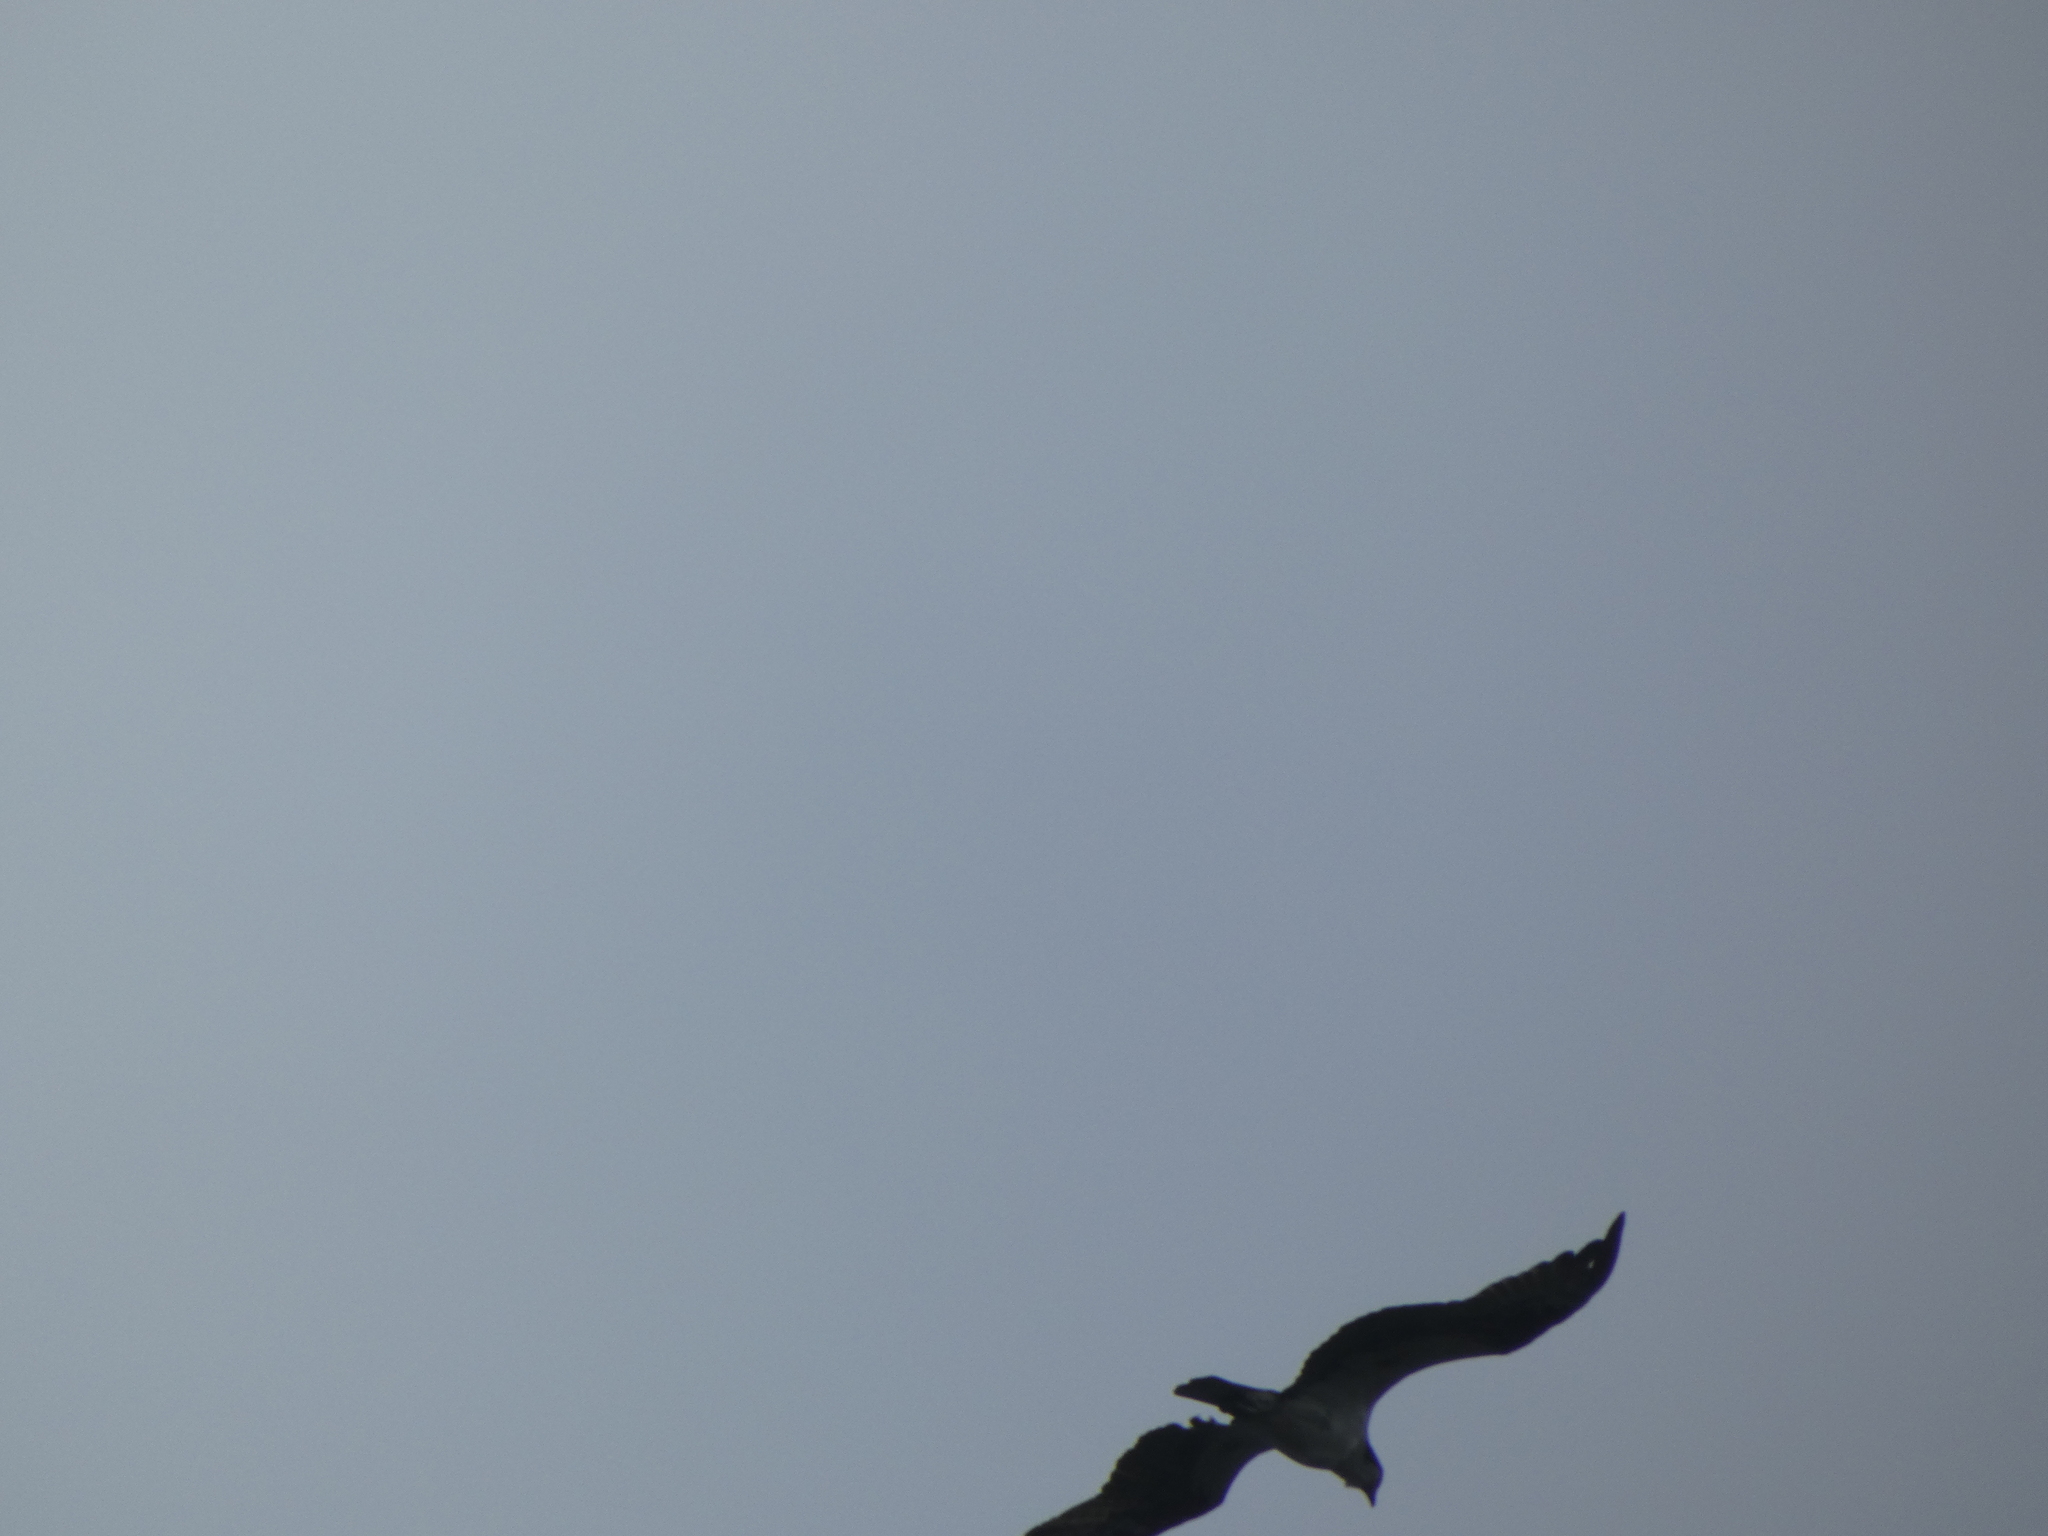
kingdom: Animalia
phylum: Chordata
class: Aves
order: Accipitriformes
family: Pandionidae
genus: Pandion
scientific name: Pandion haliaetus
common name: Osprey
